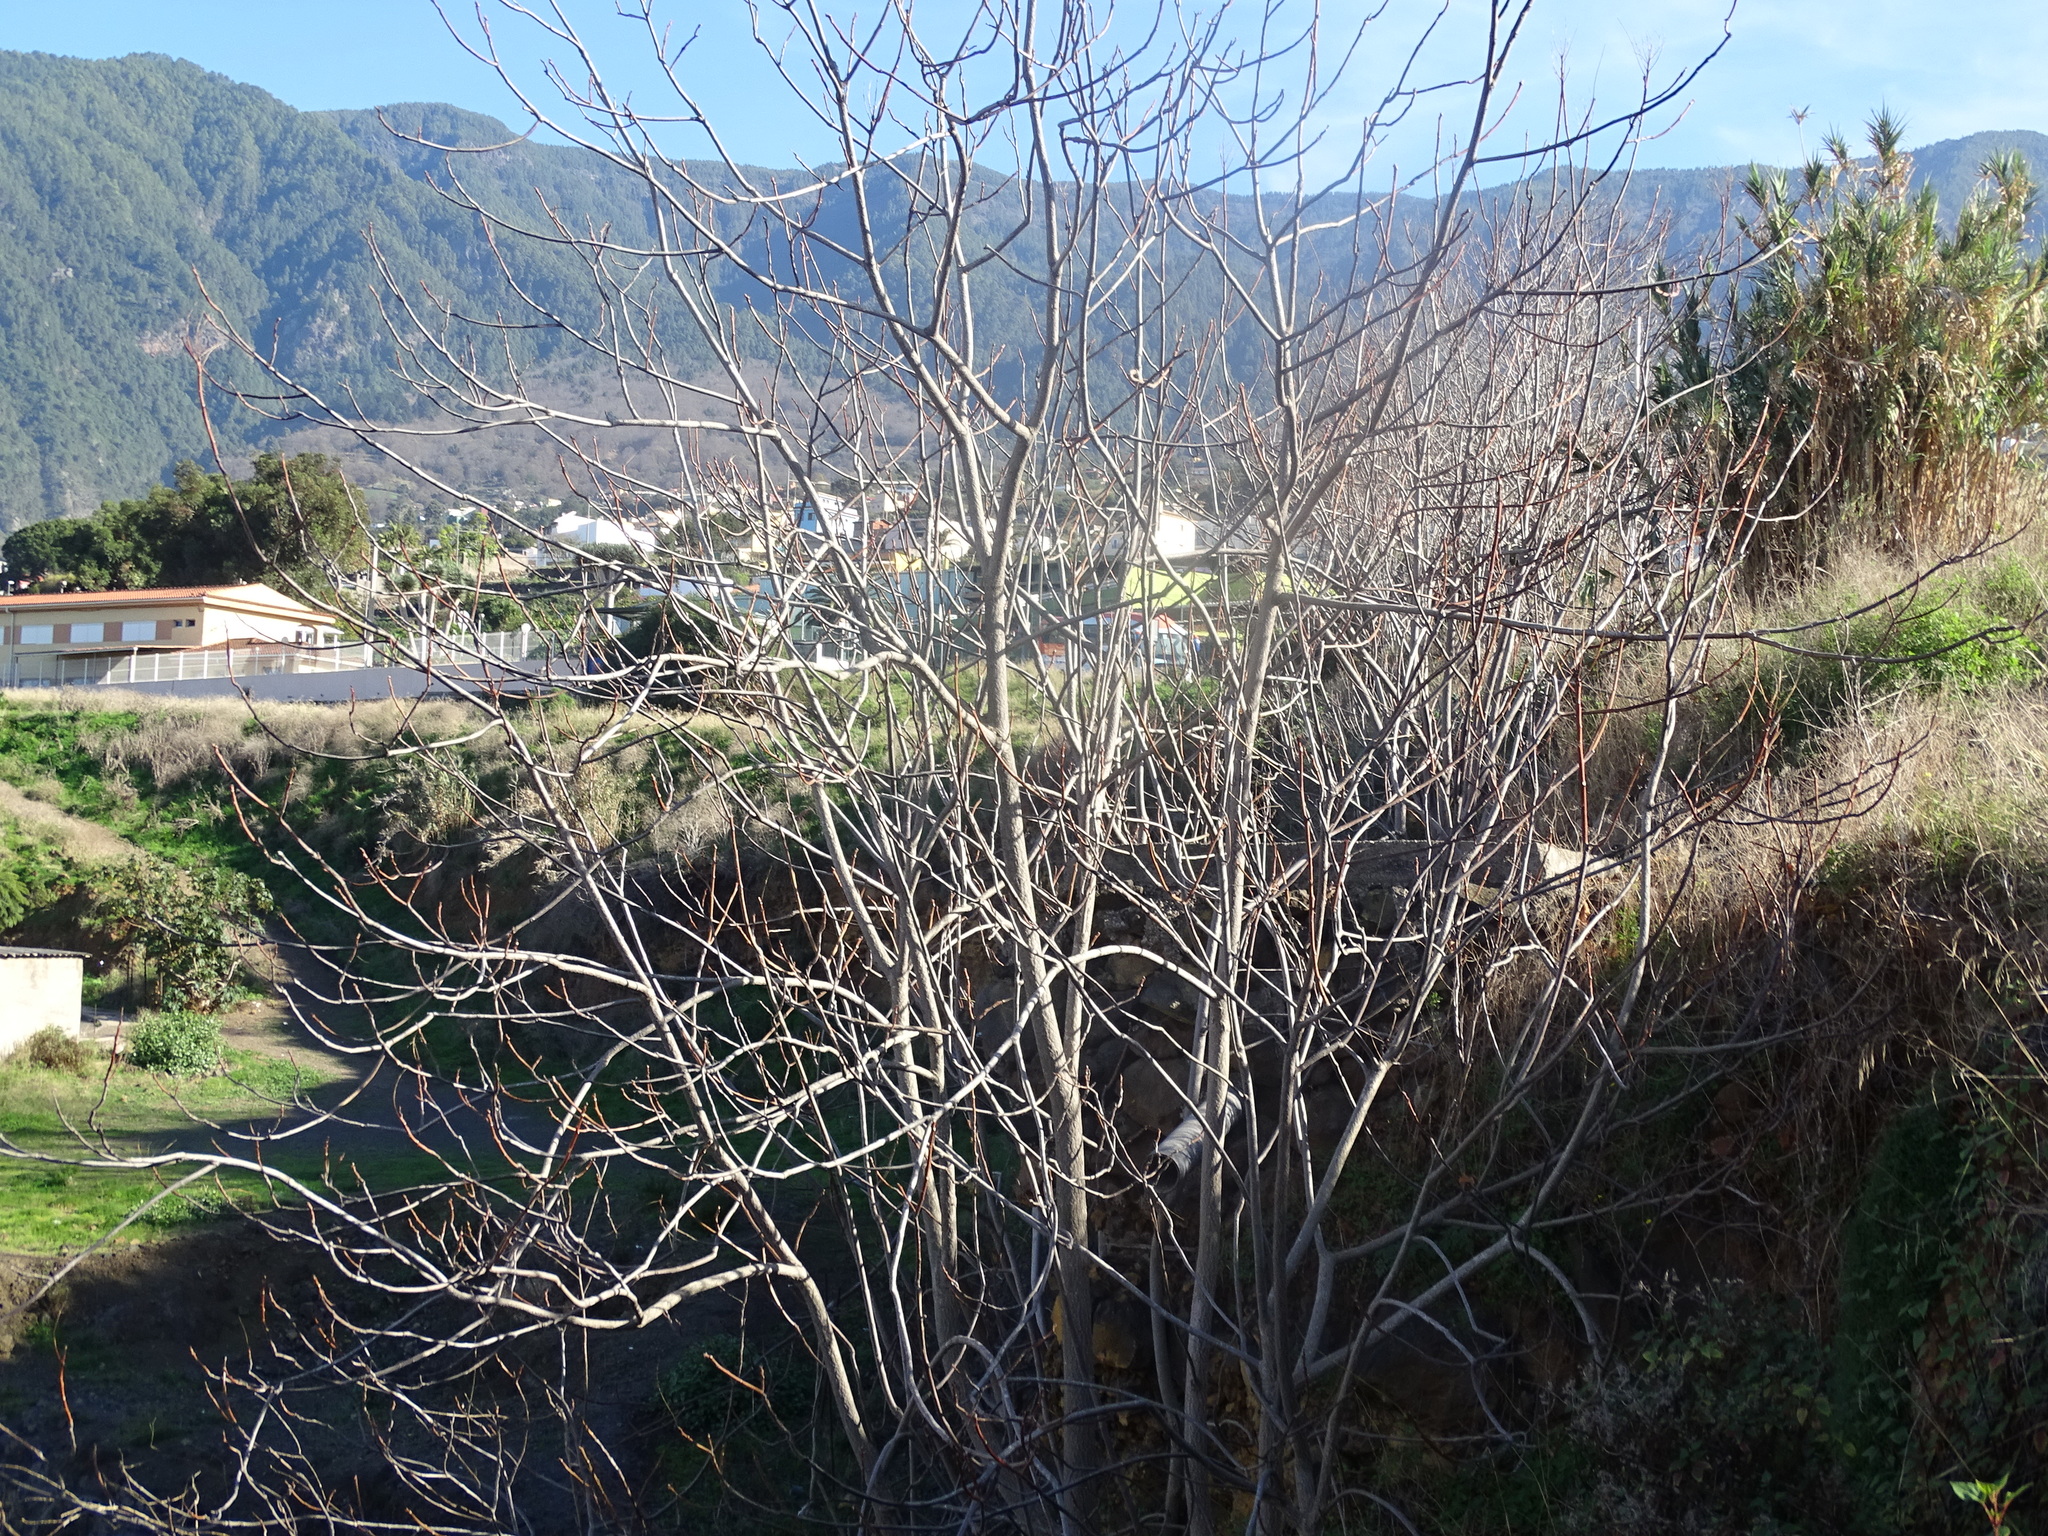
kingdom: Plantae
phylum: Tracheophyta
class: Magnoliopsida
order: Sapindales
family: Simaroubaceae
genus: Ailanthus
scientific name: Ailanthus altissima
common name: Tree-of-heaven
